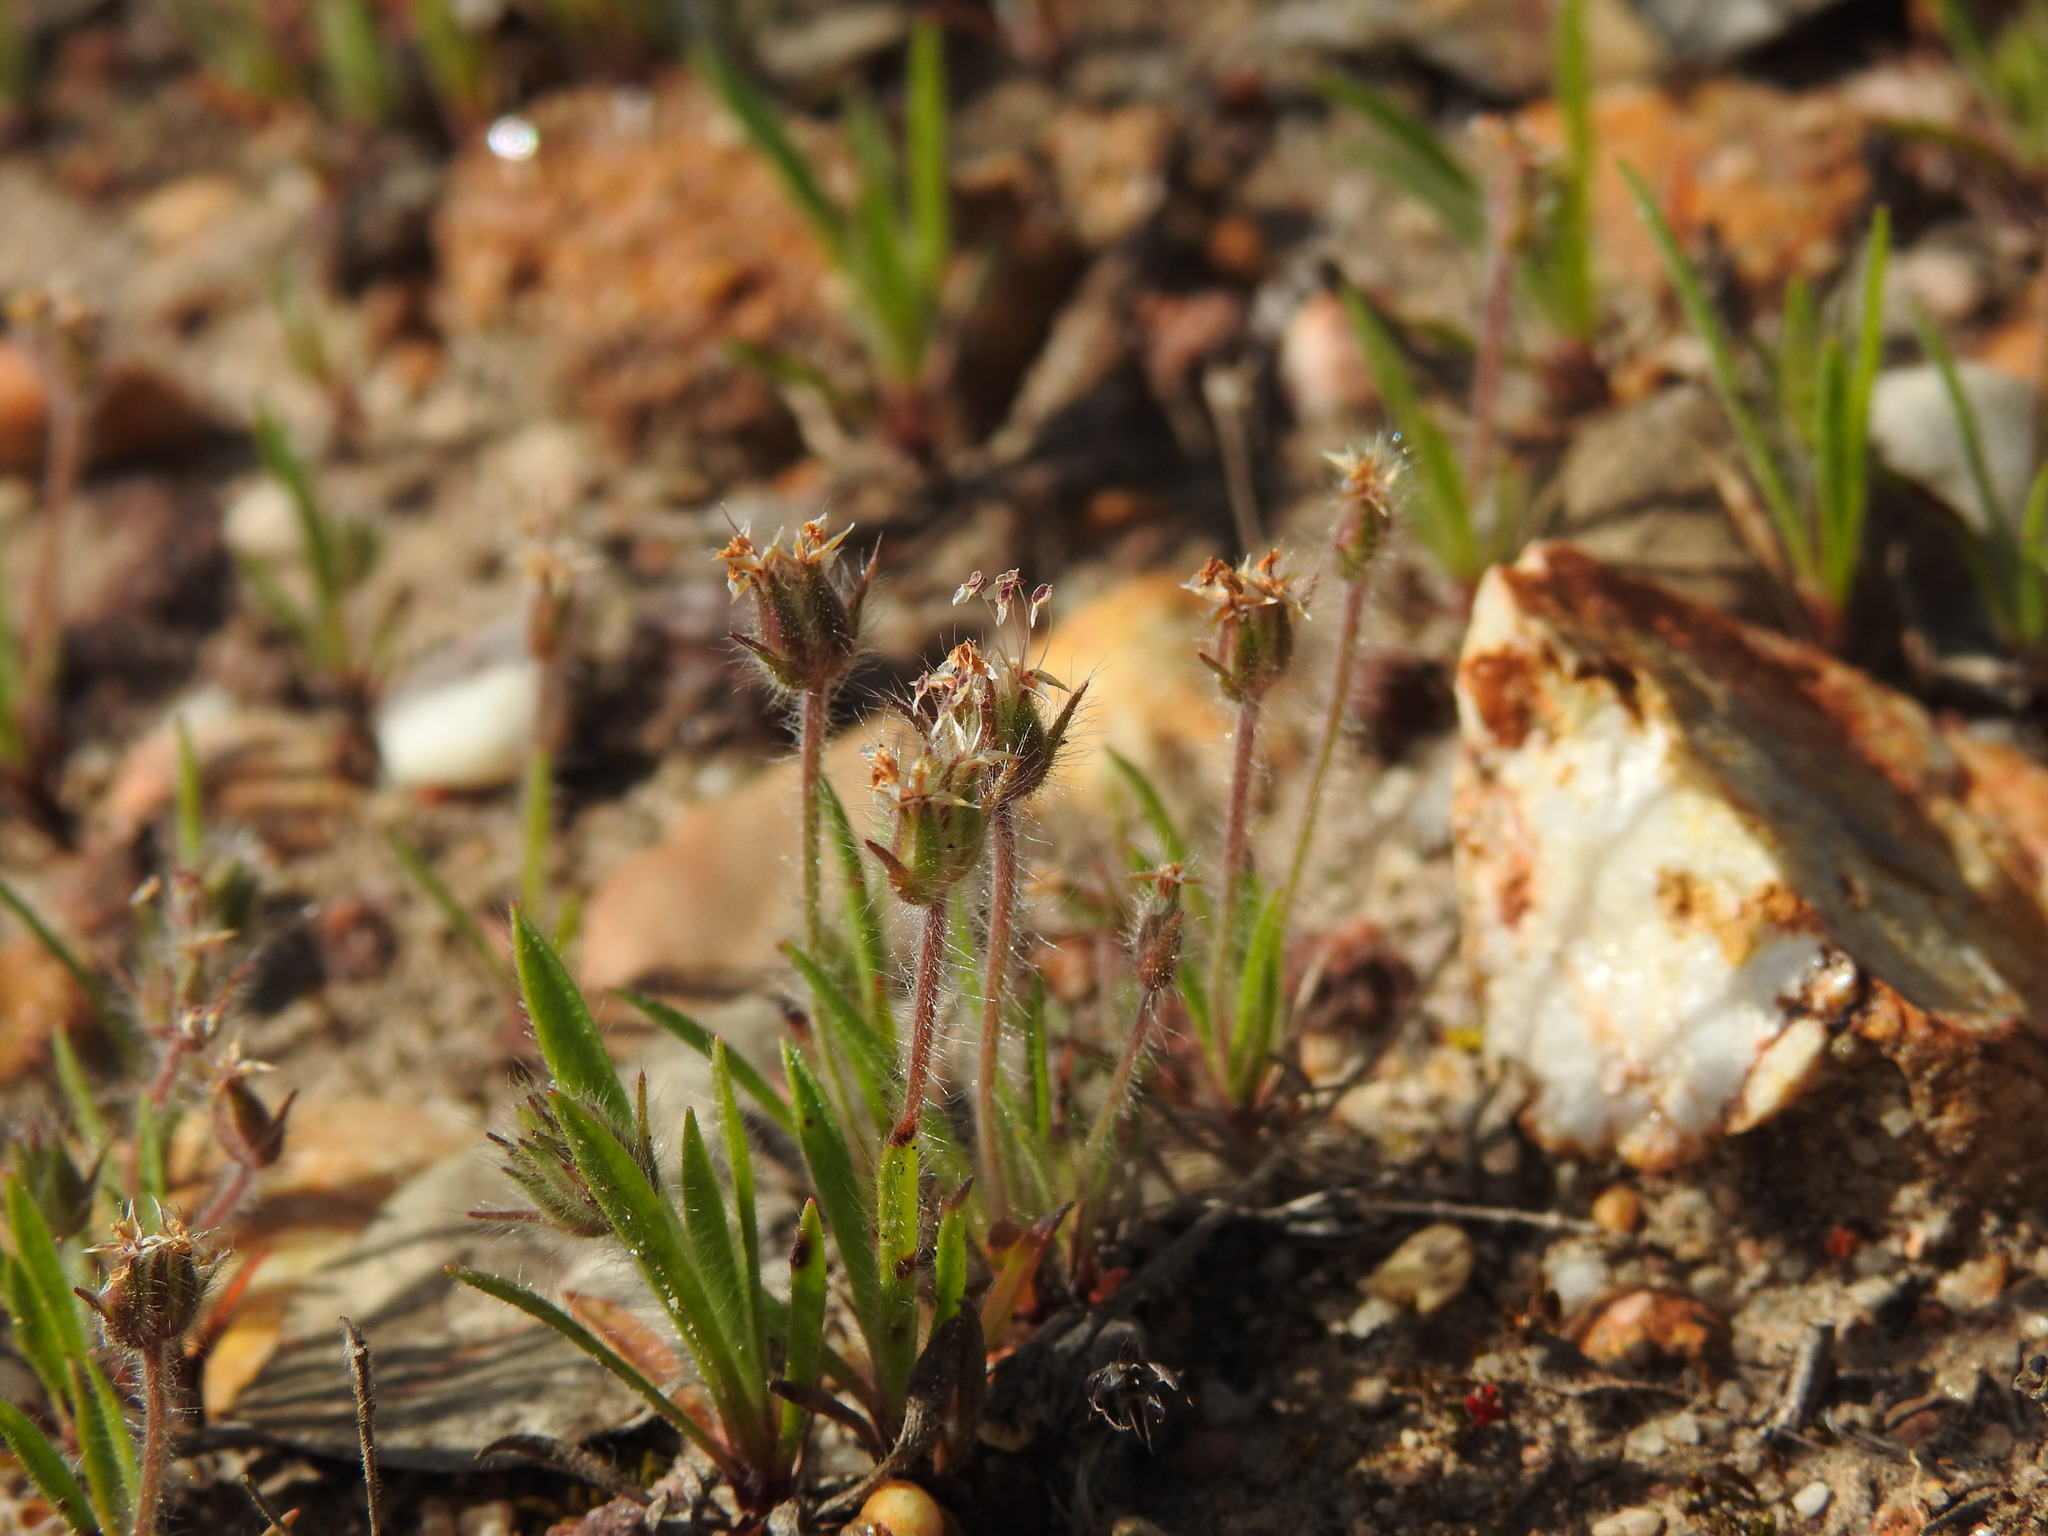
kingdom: Plantae
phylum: Tracheophyta
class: Magnoliopsida
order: Lamiales
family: Plantaginaceae
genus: Plantago
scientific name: Plantago bellardii
